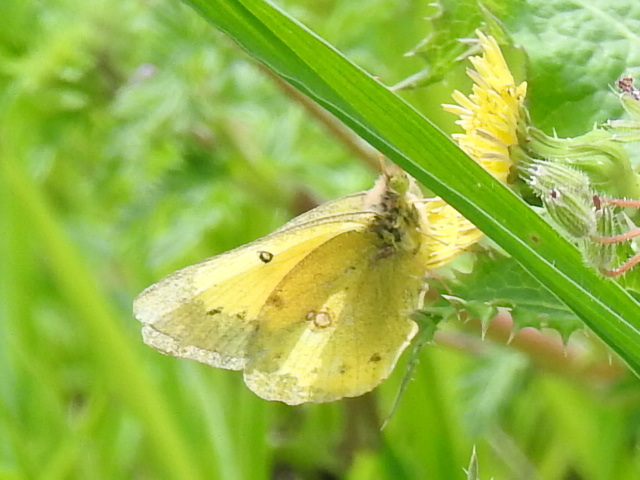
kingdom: Animalia
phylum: Arthropoda
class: Insecta
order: Lepidoptera
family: Pieridae
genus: Colias
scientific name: Colias eurytheme
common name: Alfalfa butterfly
